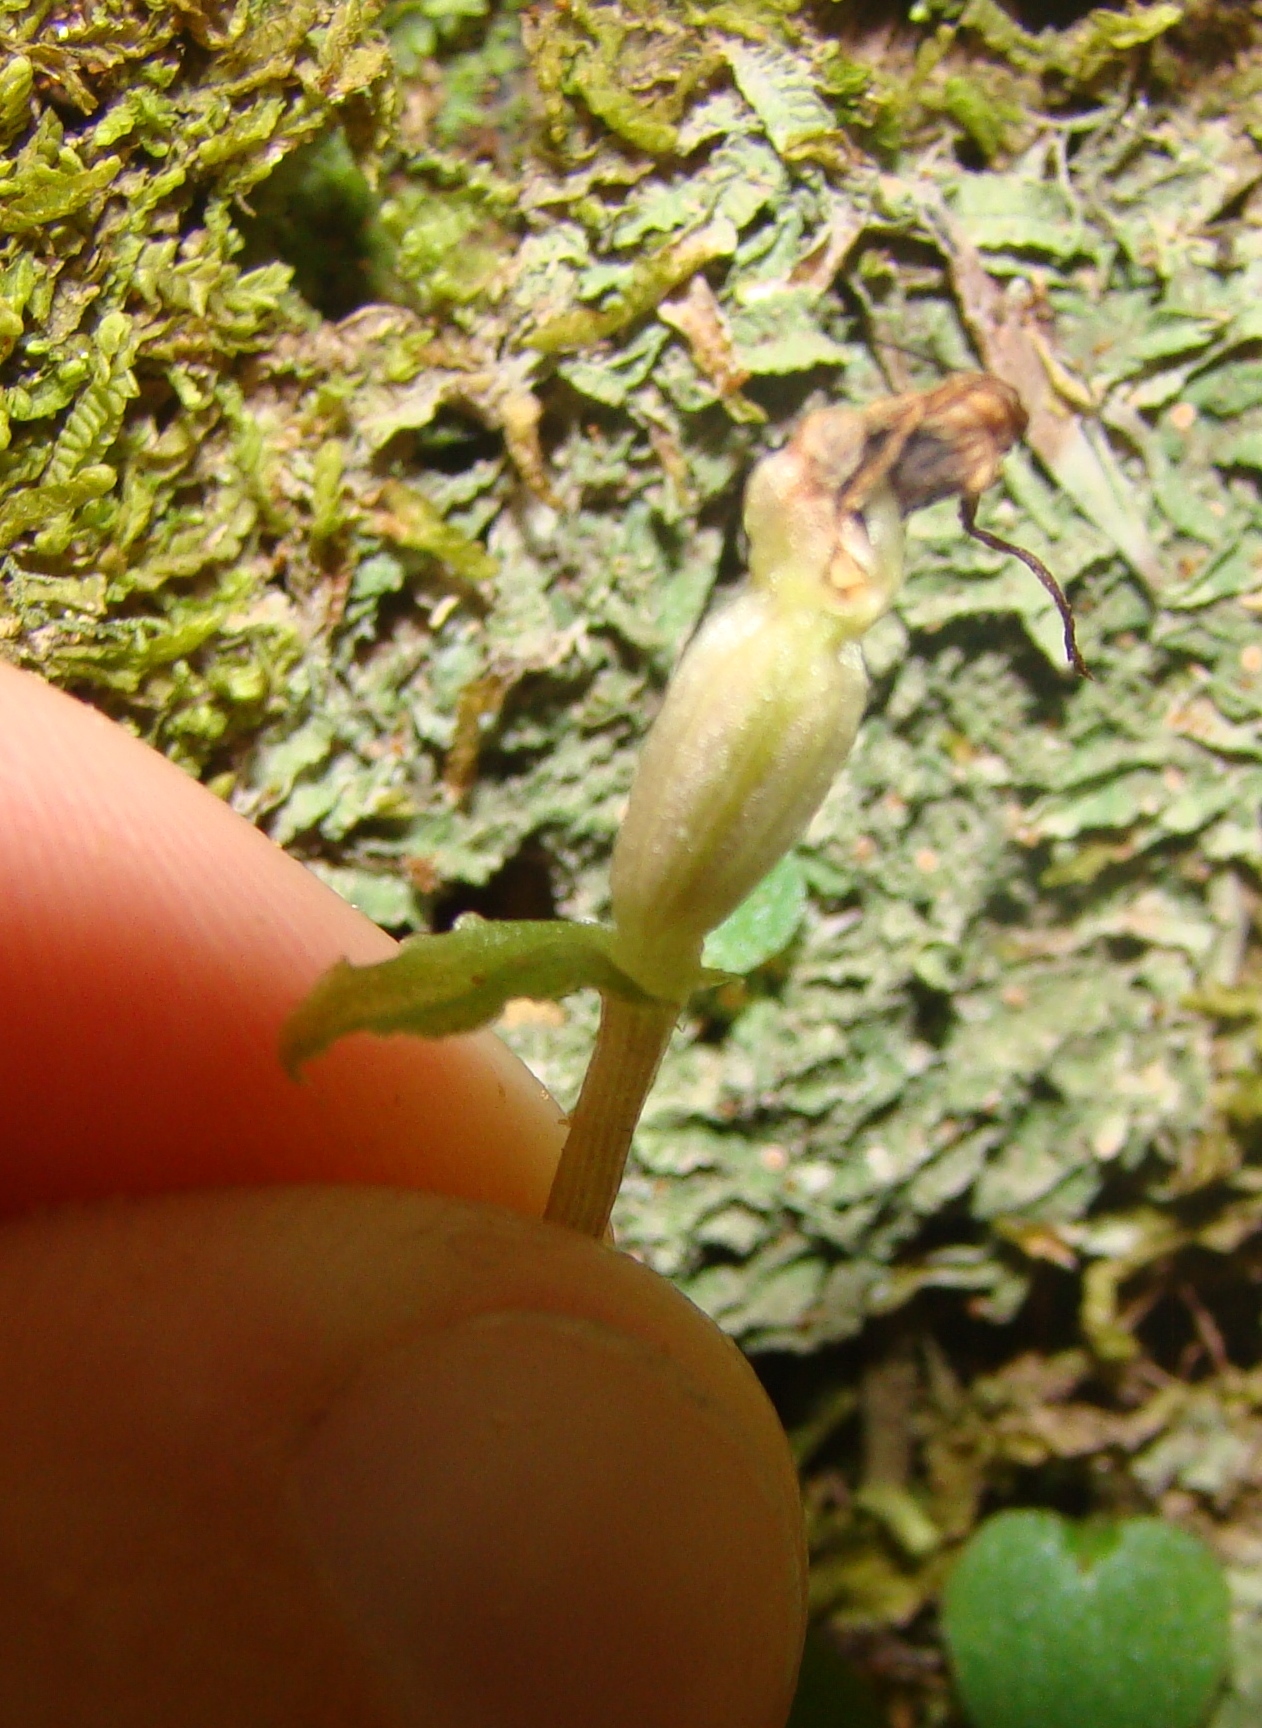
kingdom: Plantae
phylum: Tracheophyta
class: Liliopsida
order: Asparagales
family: Orchidaceae
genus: Corybas
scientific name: Corybas oblongus
